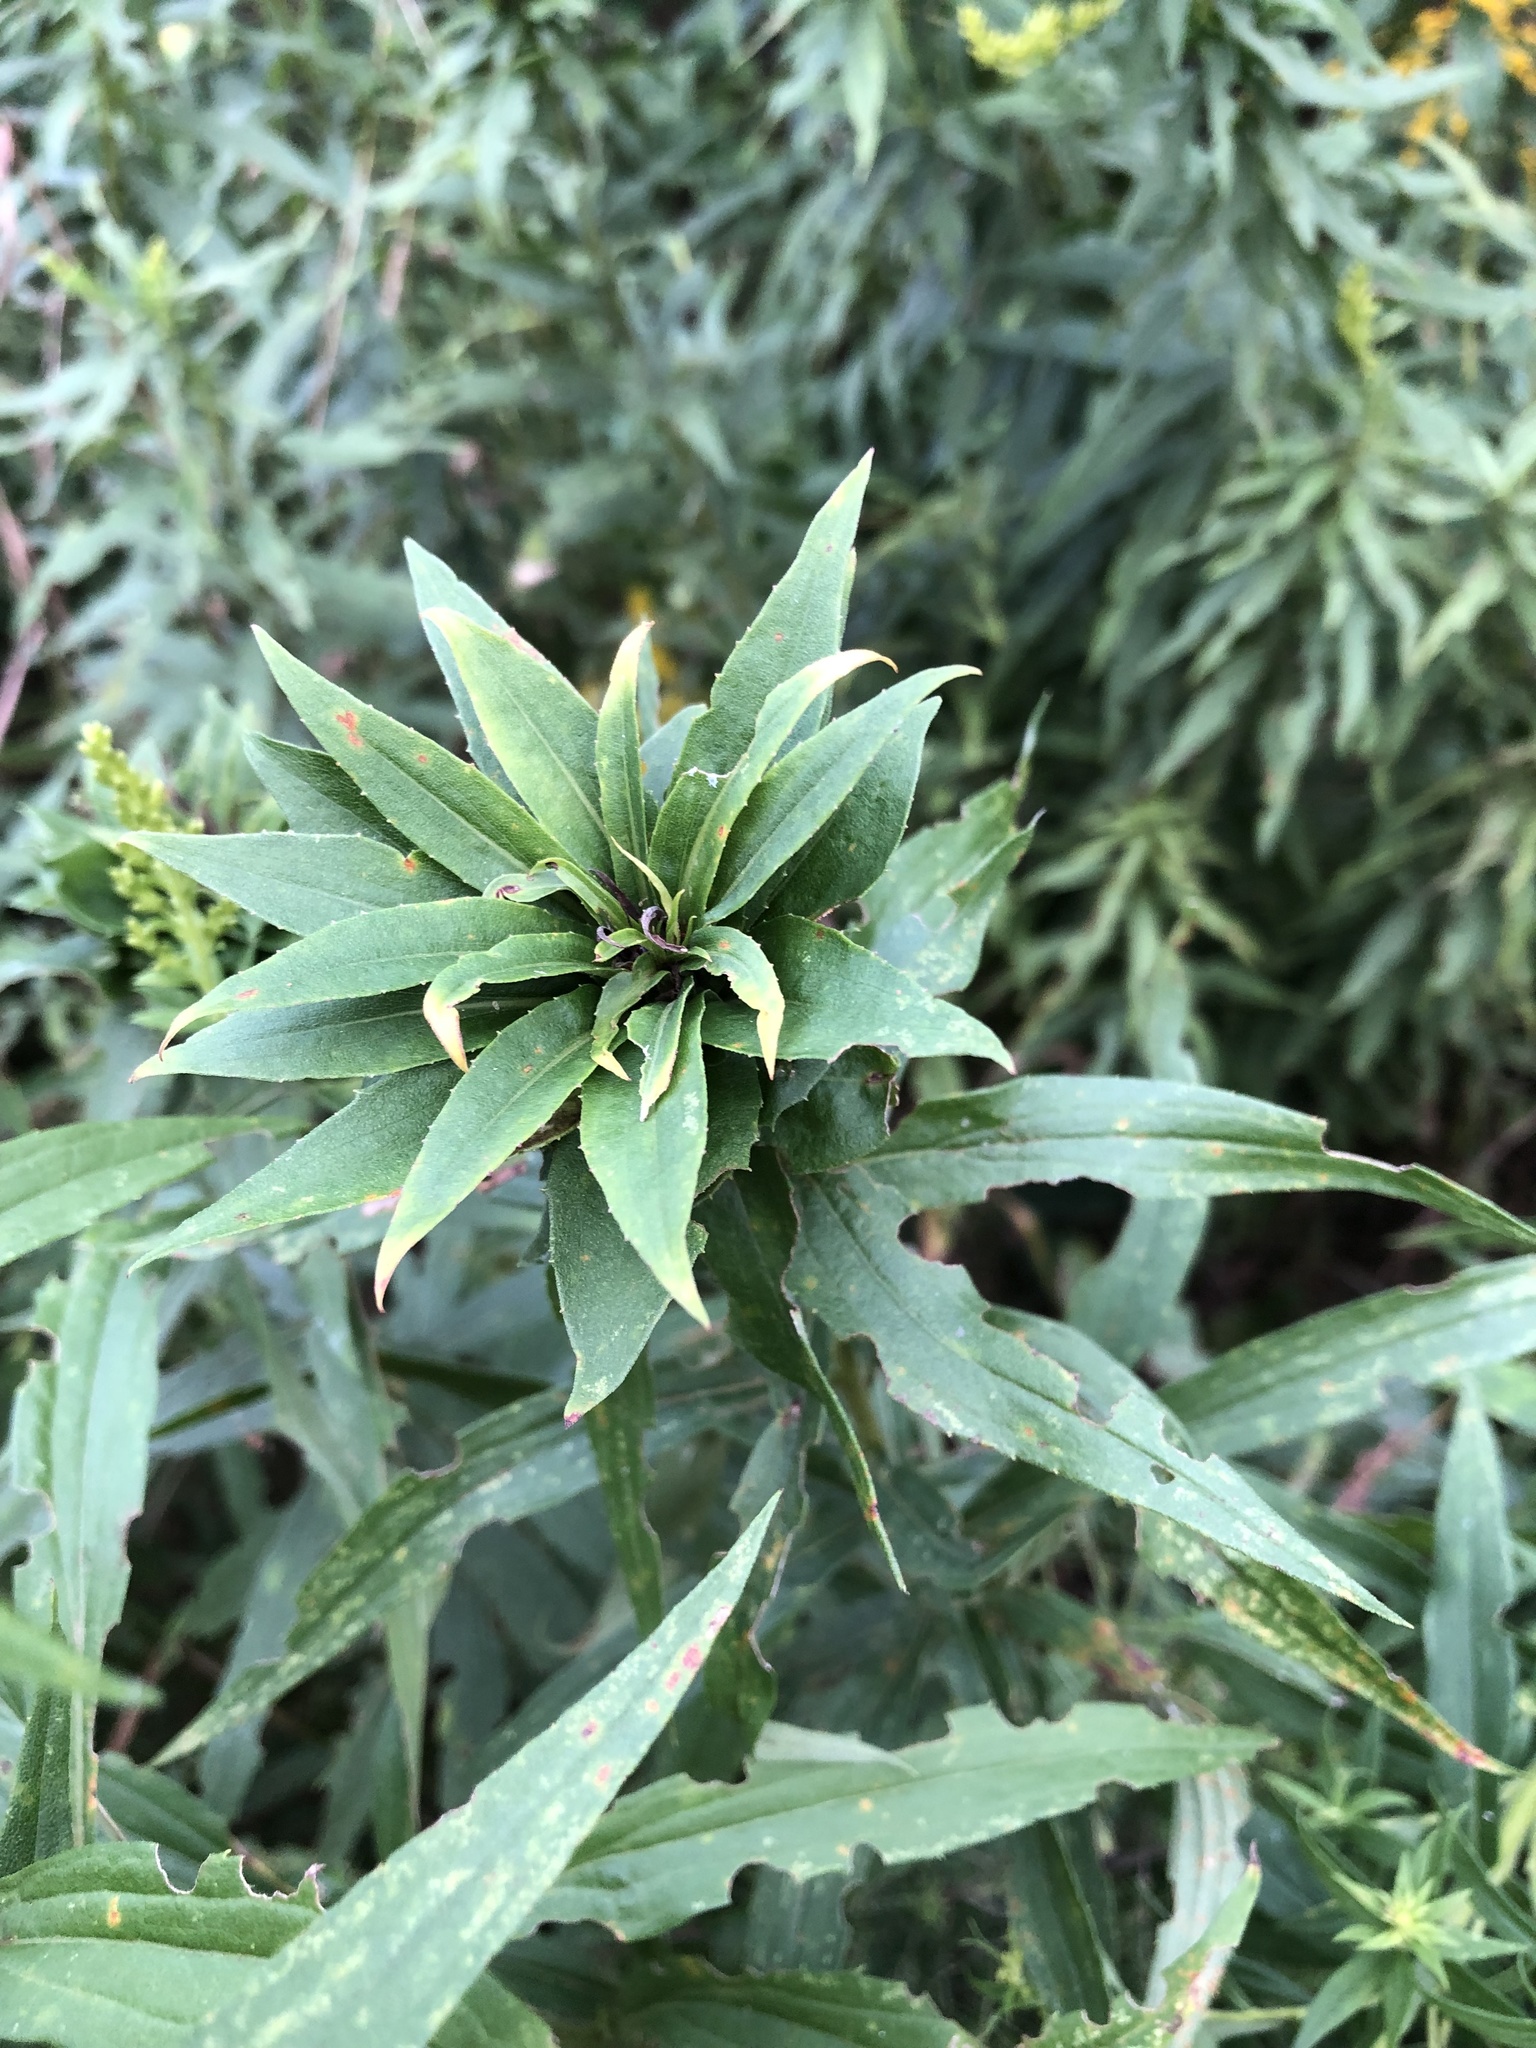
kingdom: Animalia
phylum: Arthropoda
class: Insecta
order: Diptera
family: Cecidomyiidae
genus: Rhopalomyia
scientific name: Rhopalomyia solidaginis
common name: Goldenrod bunch gall midge
